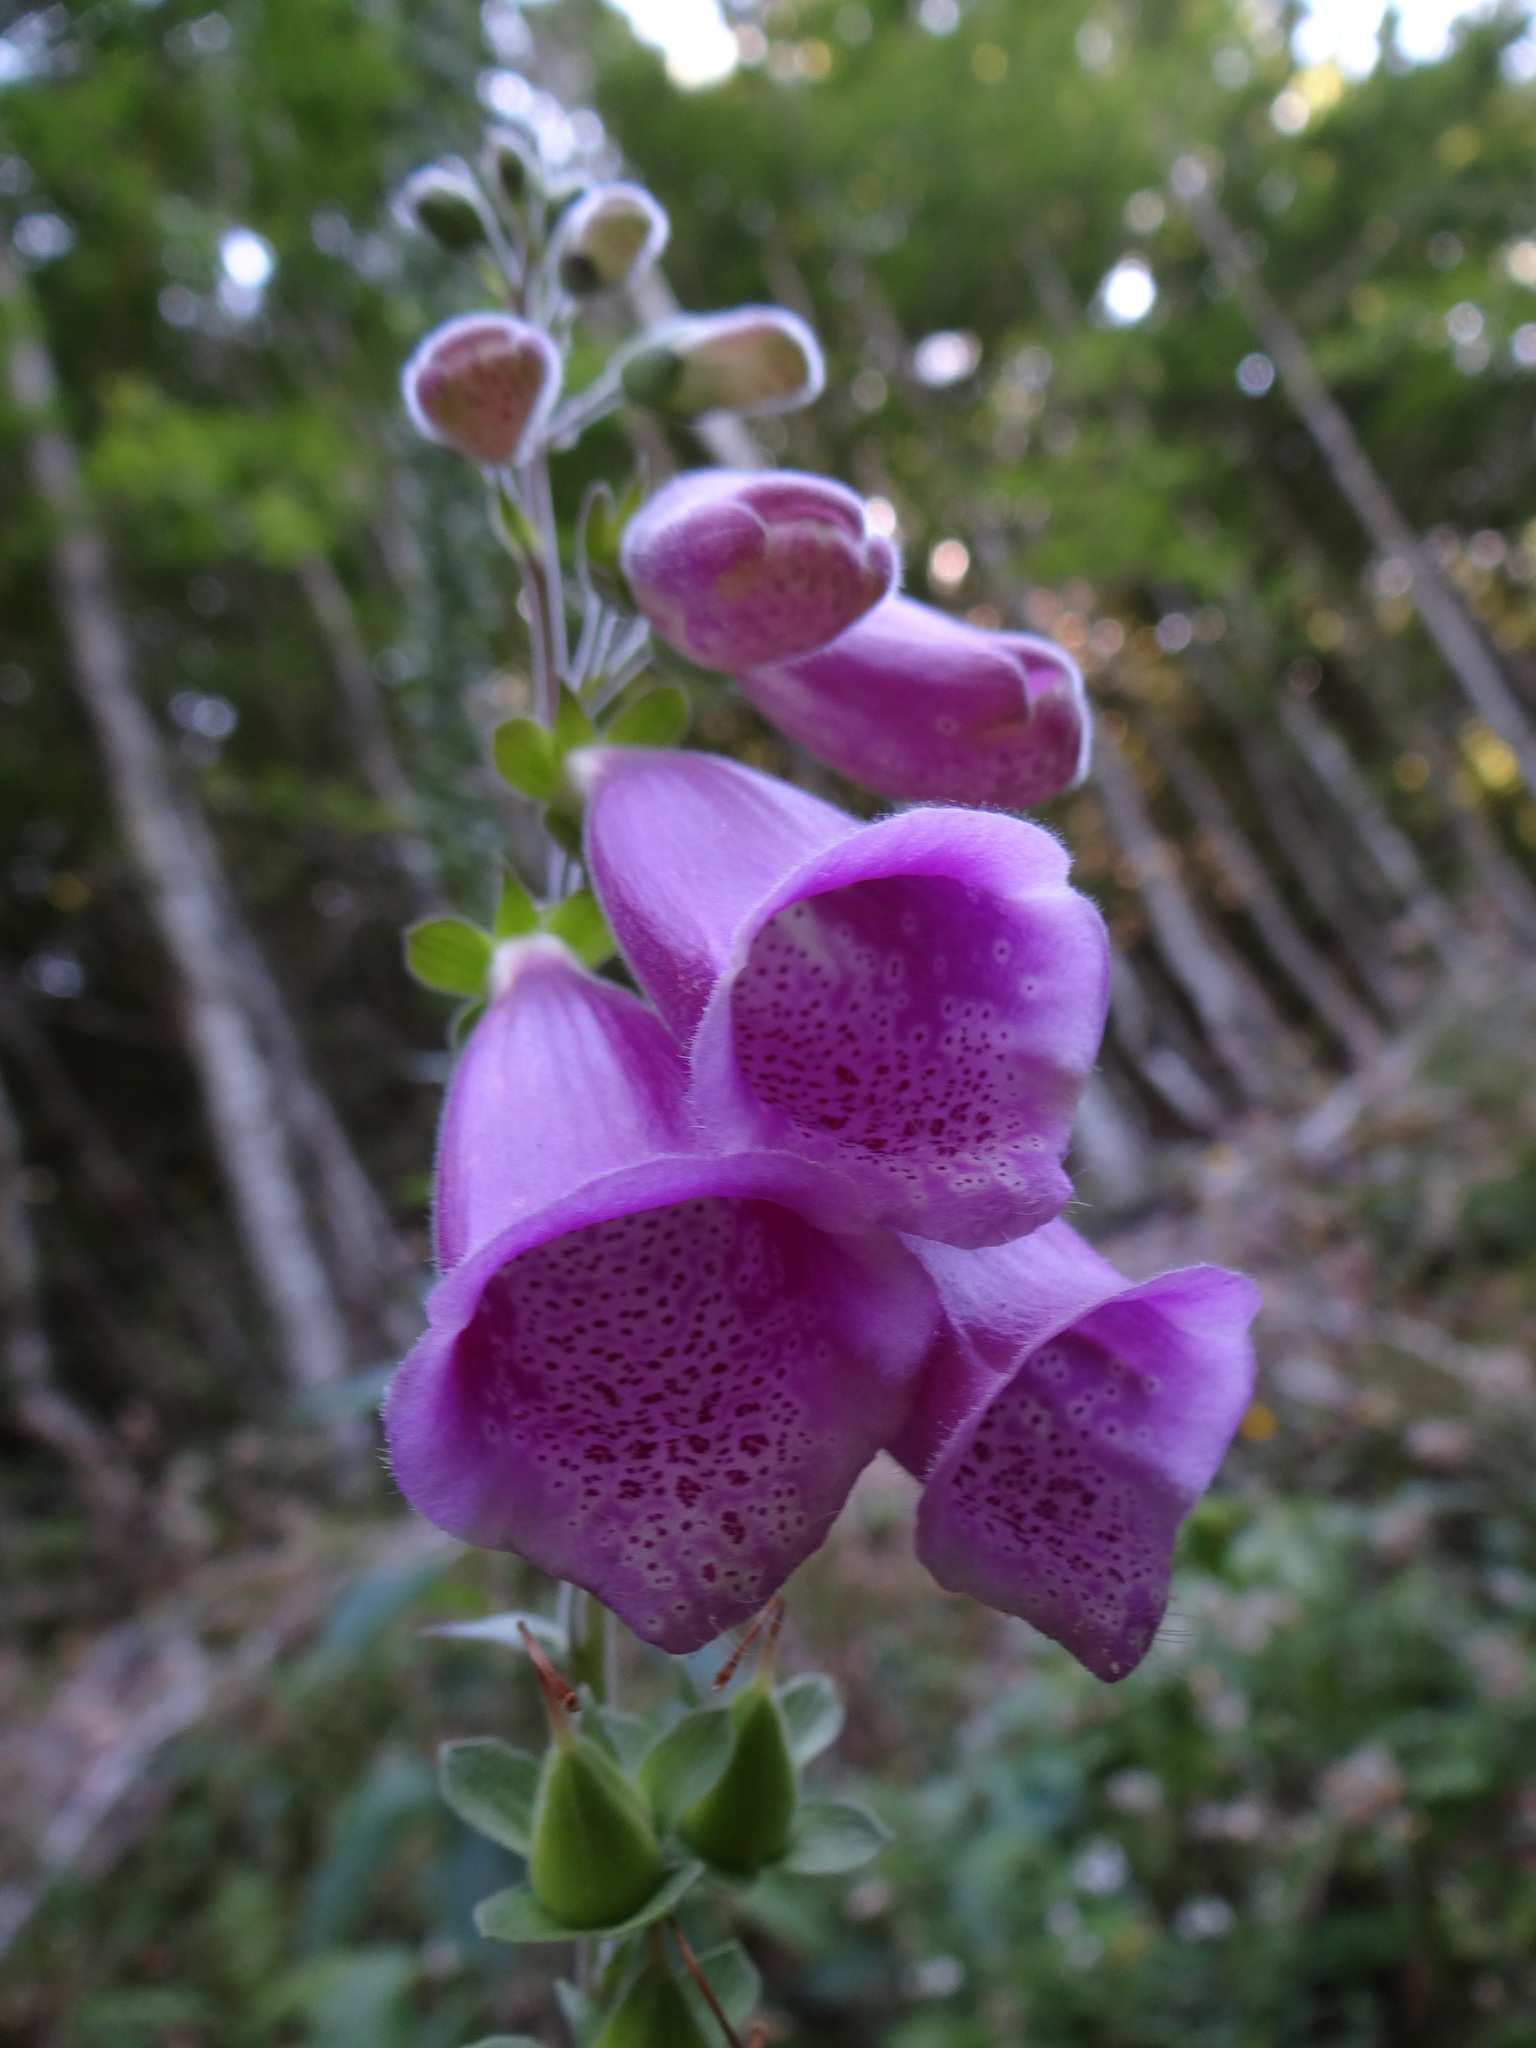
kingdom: Plantae
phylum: Tracheophyta
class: Magnoliopsida
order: Lamiales
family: Plantaginaceae
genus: Digitalis
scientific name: Digitalis purpurea
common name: Foxglove
